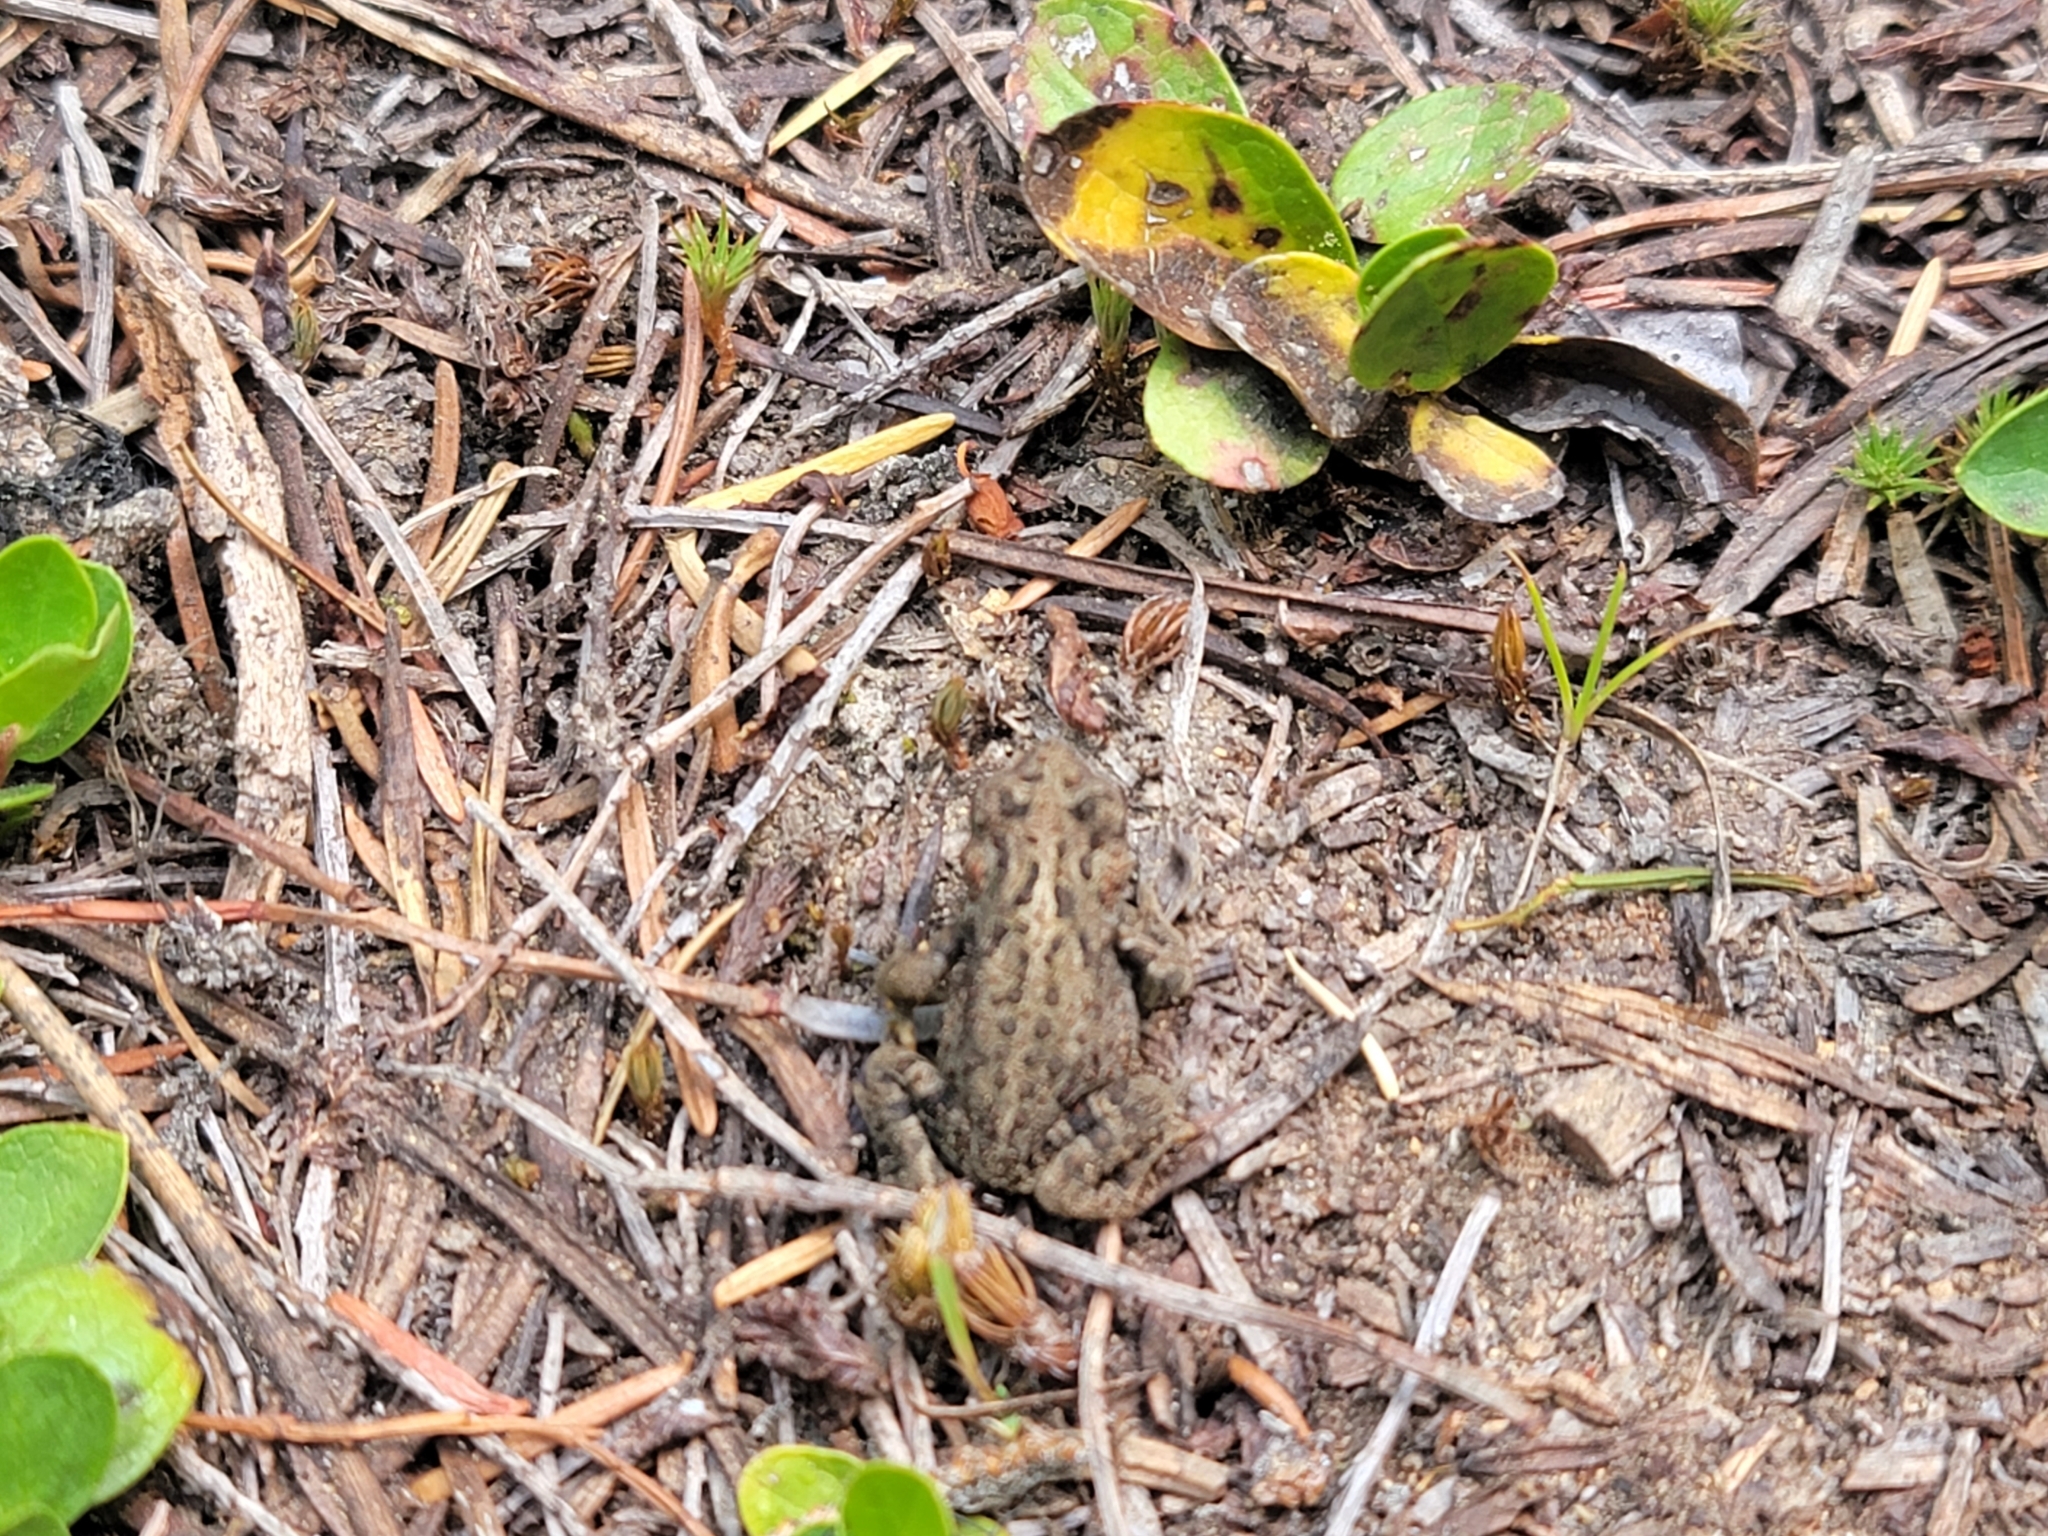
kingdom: Animalia
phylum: Chordata
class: Amphibia
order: Anura
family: Bufonidae
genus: Anaxyrus
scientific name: Anaxyrus boreas
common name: Western toad
